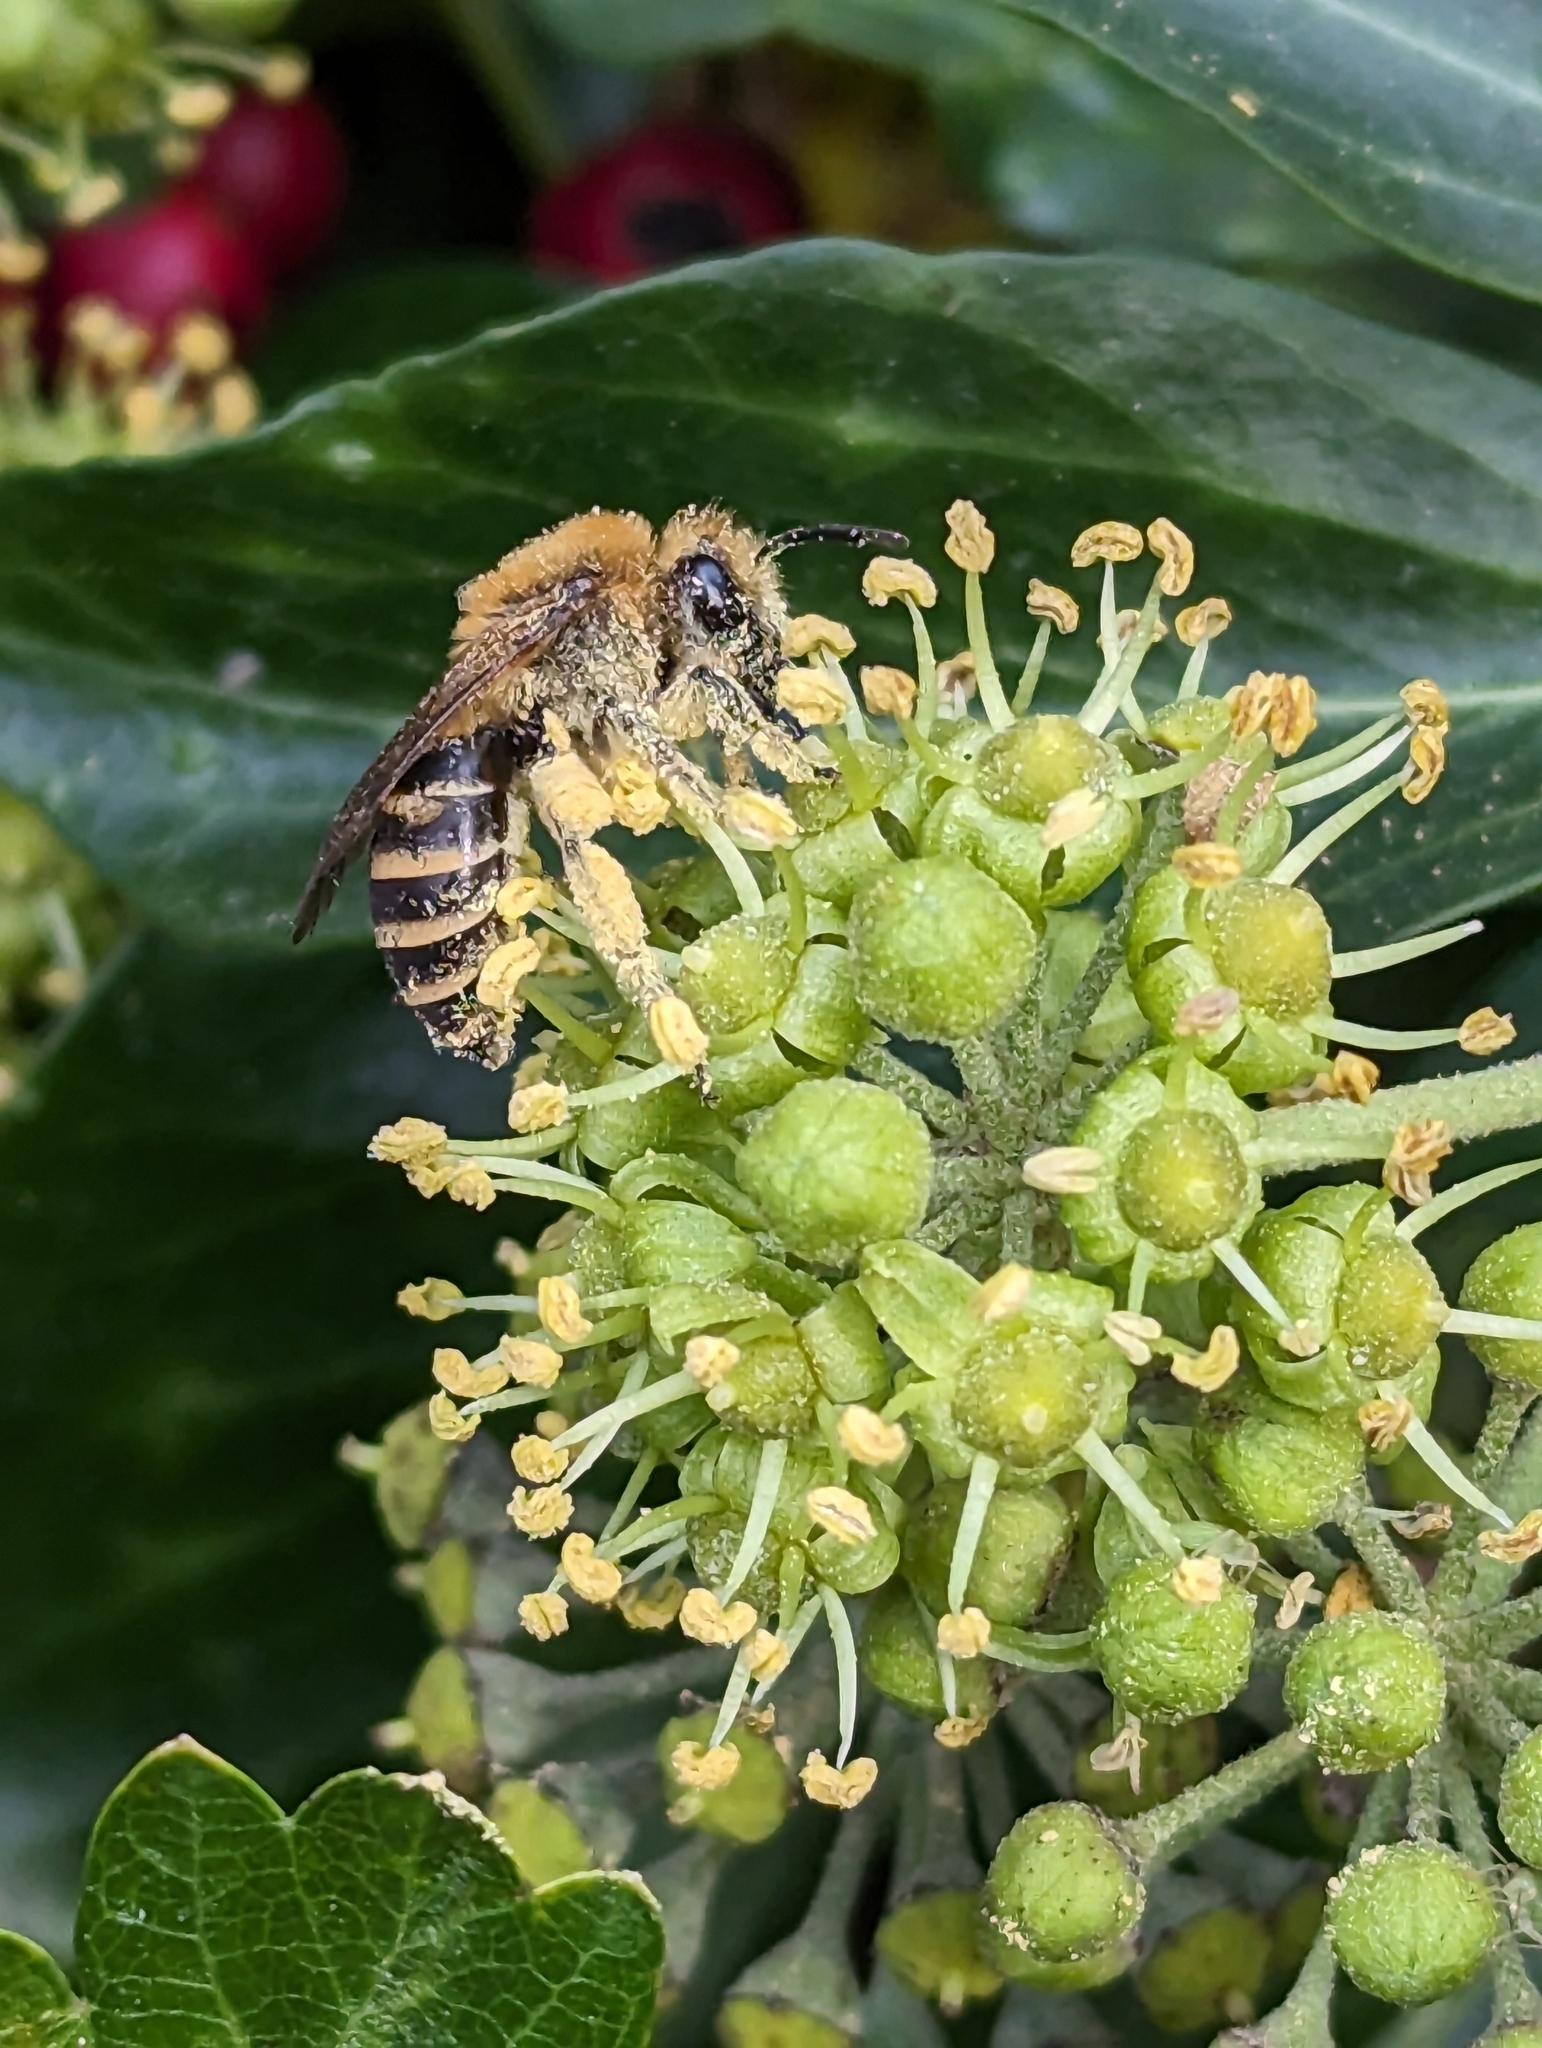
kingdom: Animalia
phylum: Arthropoda
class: Insecta
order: Hymenoptera
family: Colletidae
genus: Colletes
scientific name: Colletes hederae
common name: Ivy bee
